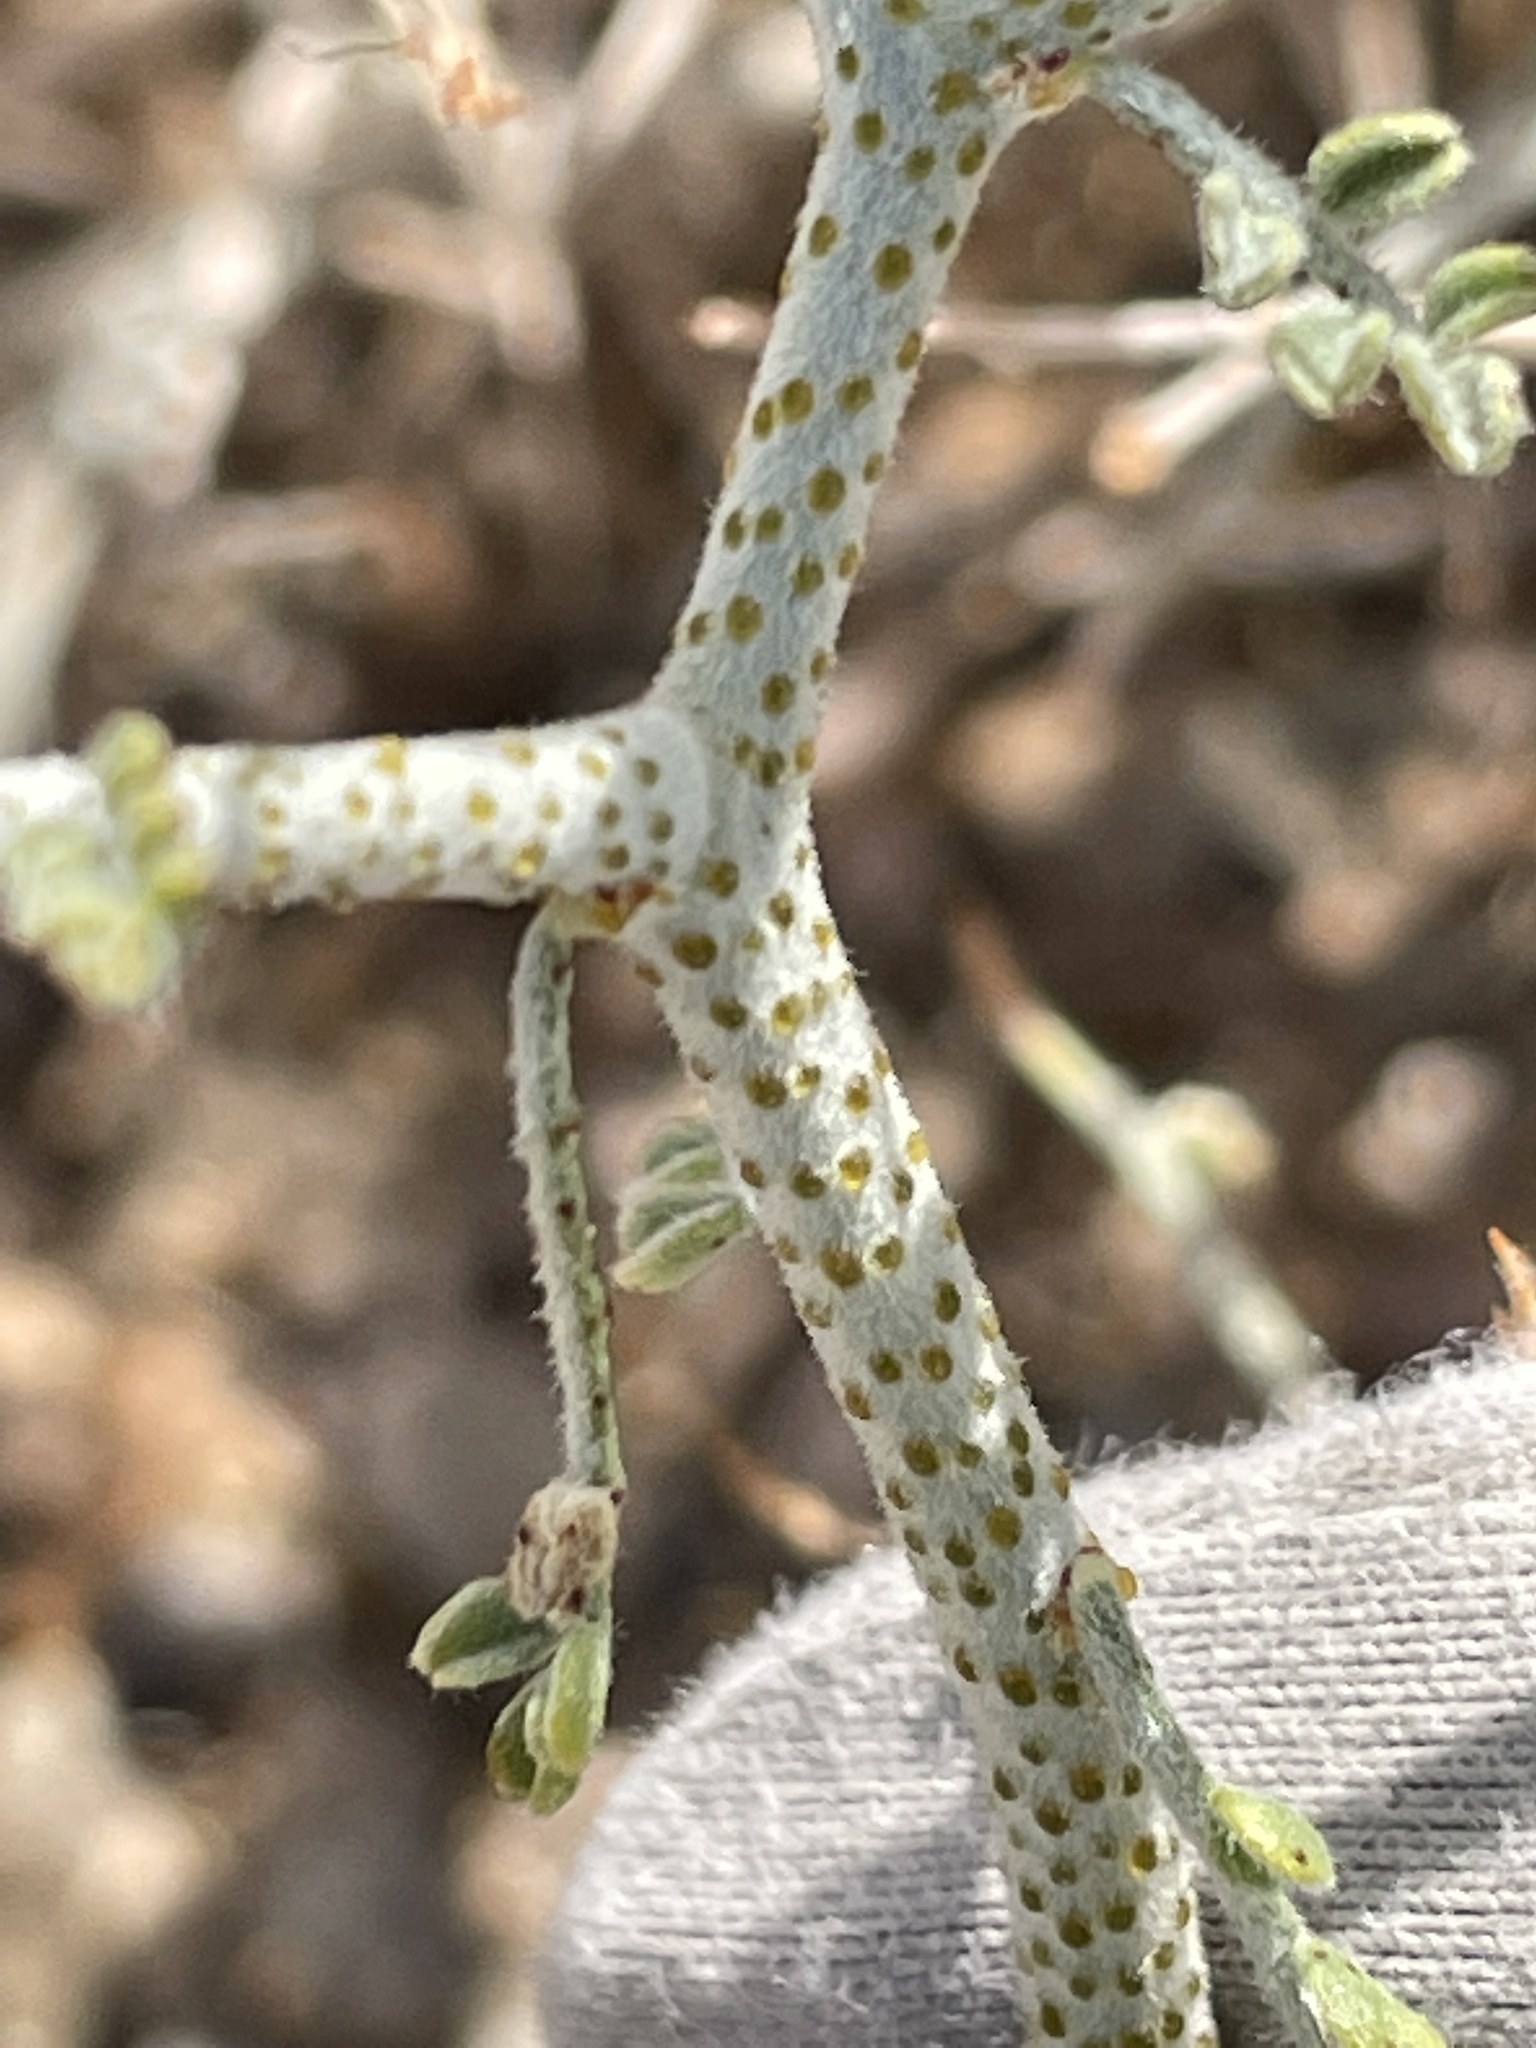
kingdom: Plantae
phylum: Tracheophyta
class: Magnoliopsida
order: Fabales
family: Fabaceae
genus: Psorothamnus
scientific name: Psorothamnus polydenius
